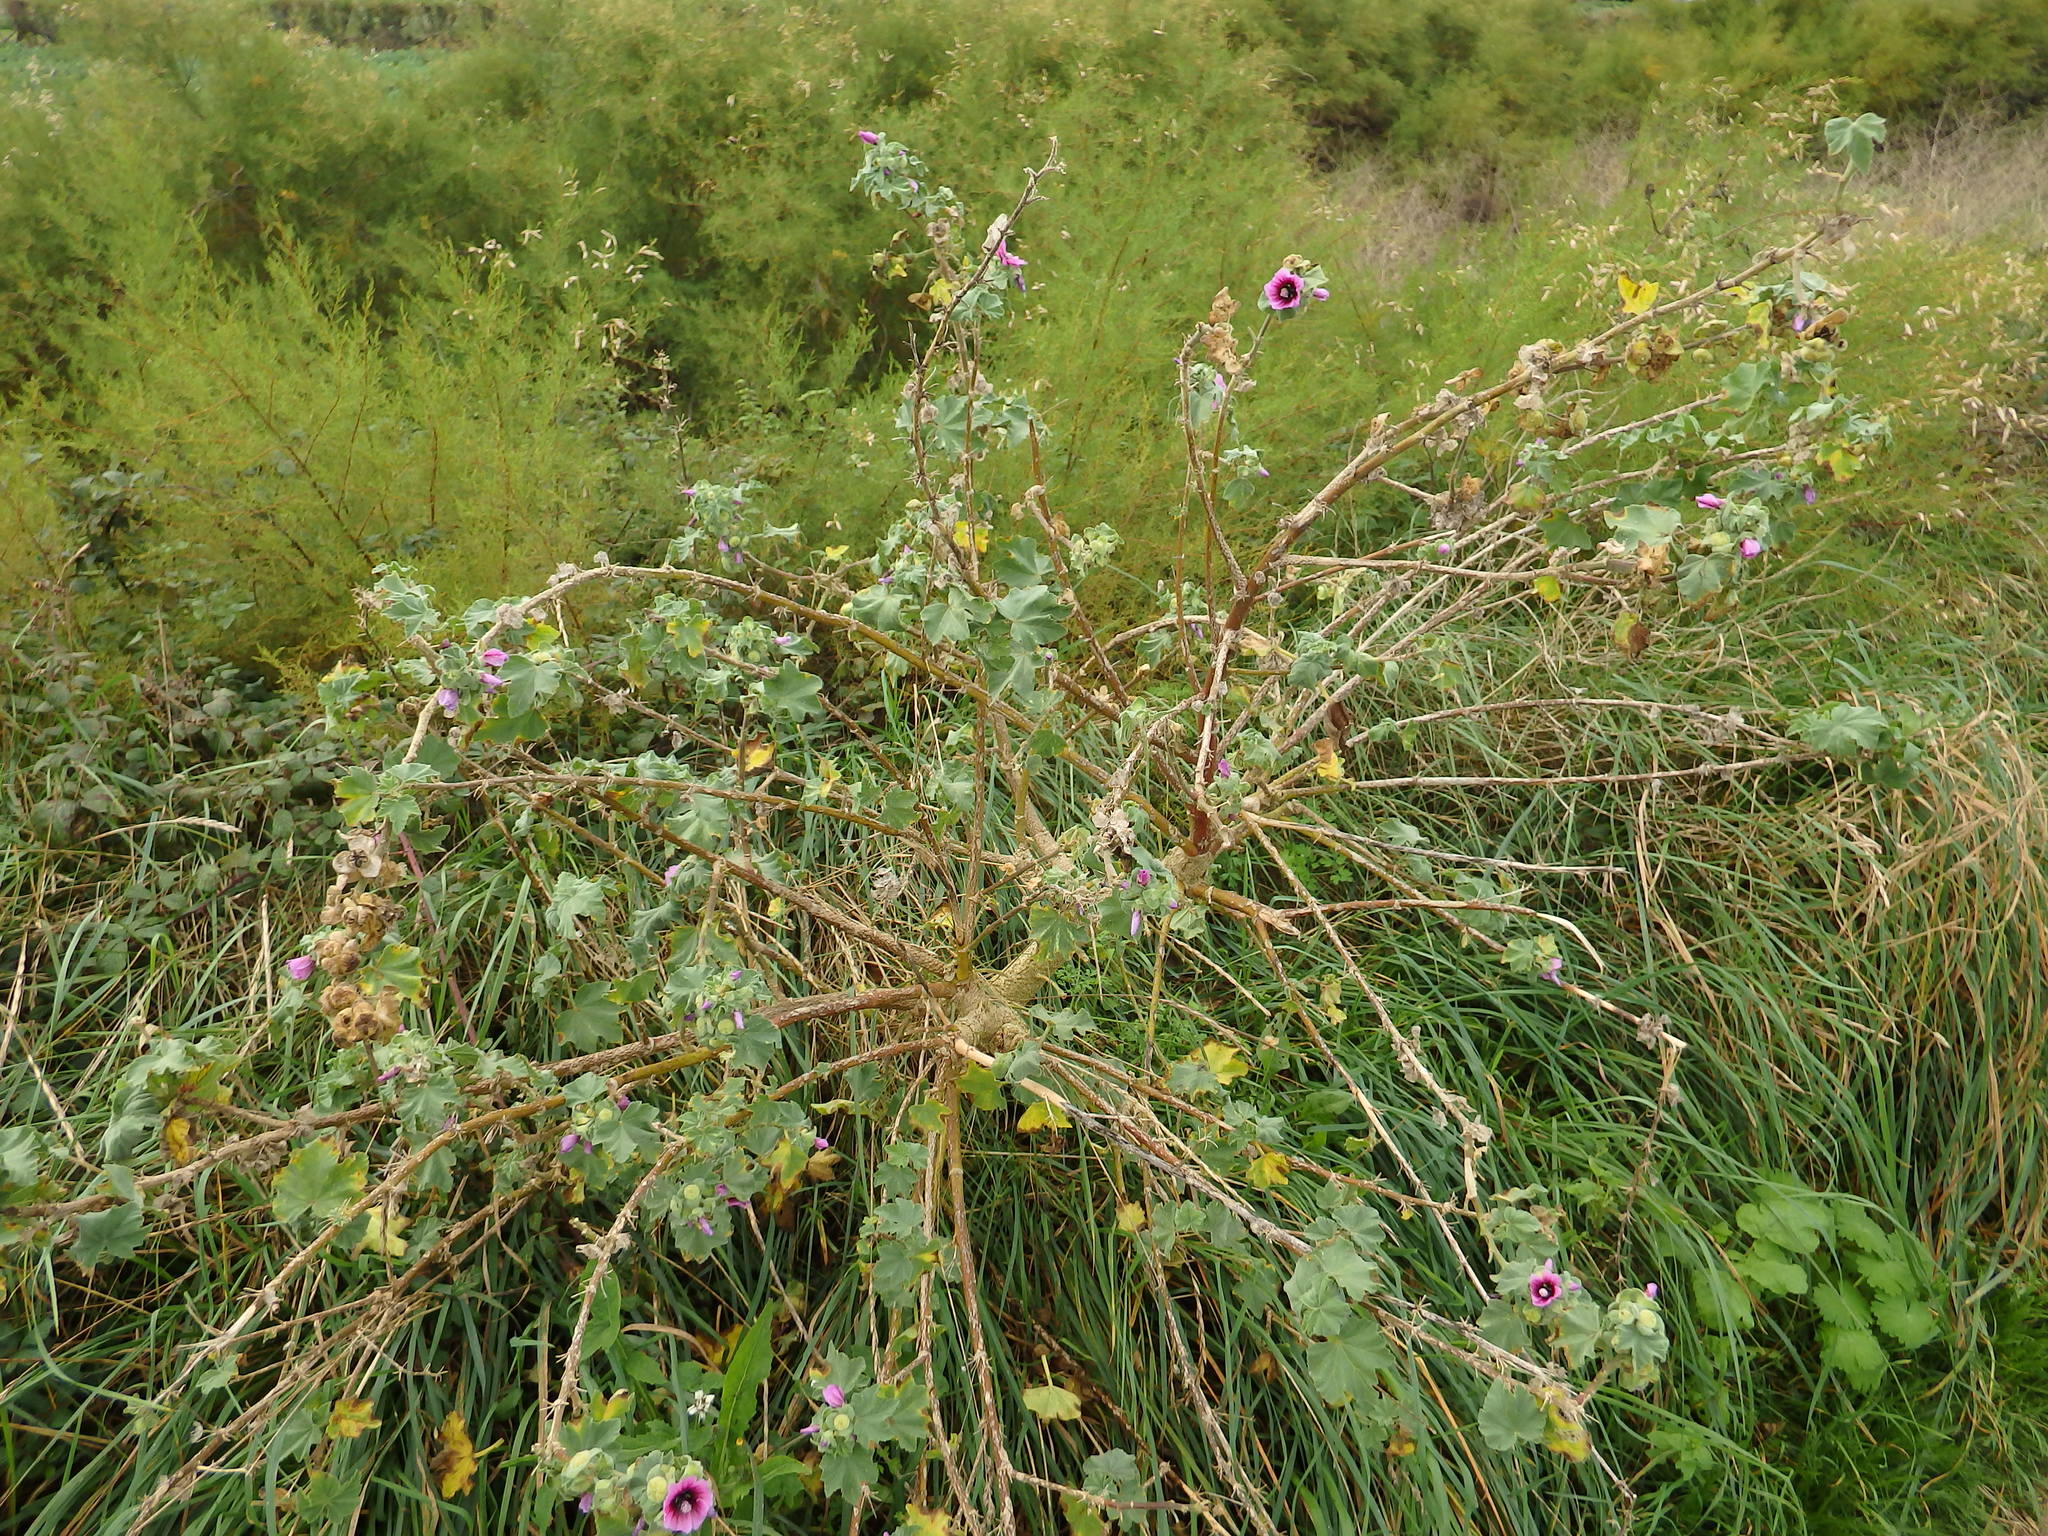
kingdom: Plantae
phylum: Tracheophyta
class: Magnoliopsida
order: Malvales
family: Malvaceae
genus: Malva
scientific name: Malva arborea
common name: Tree mallow
